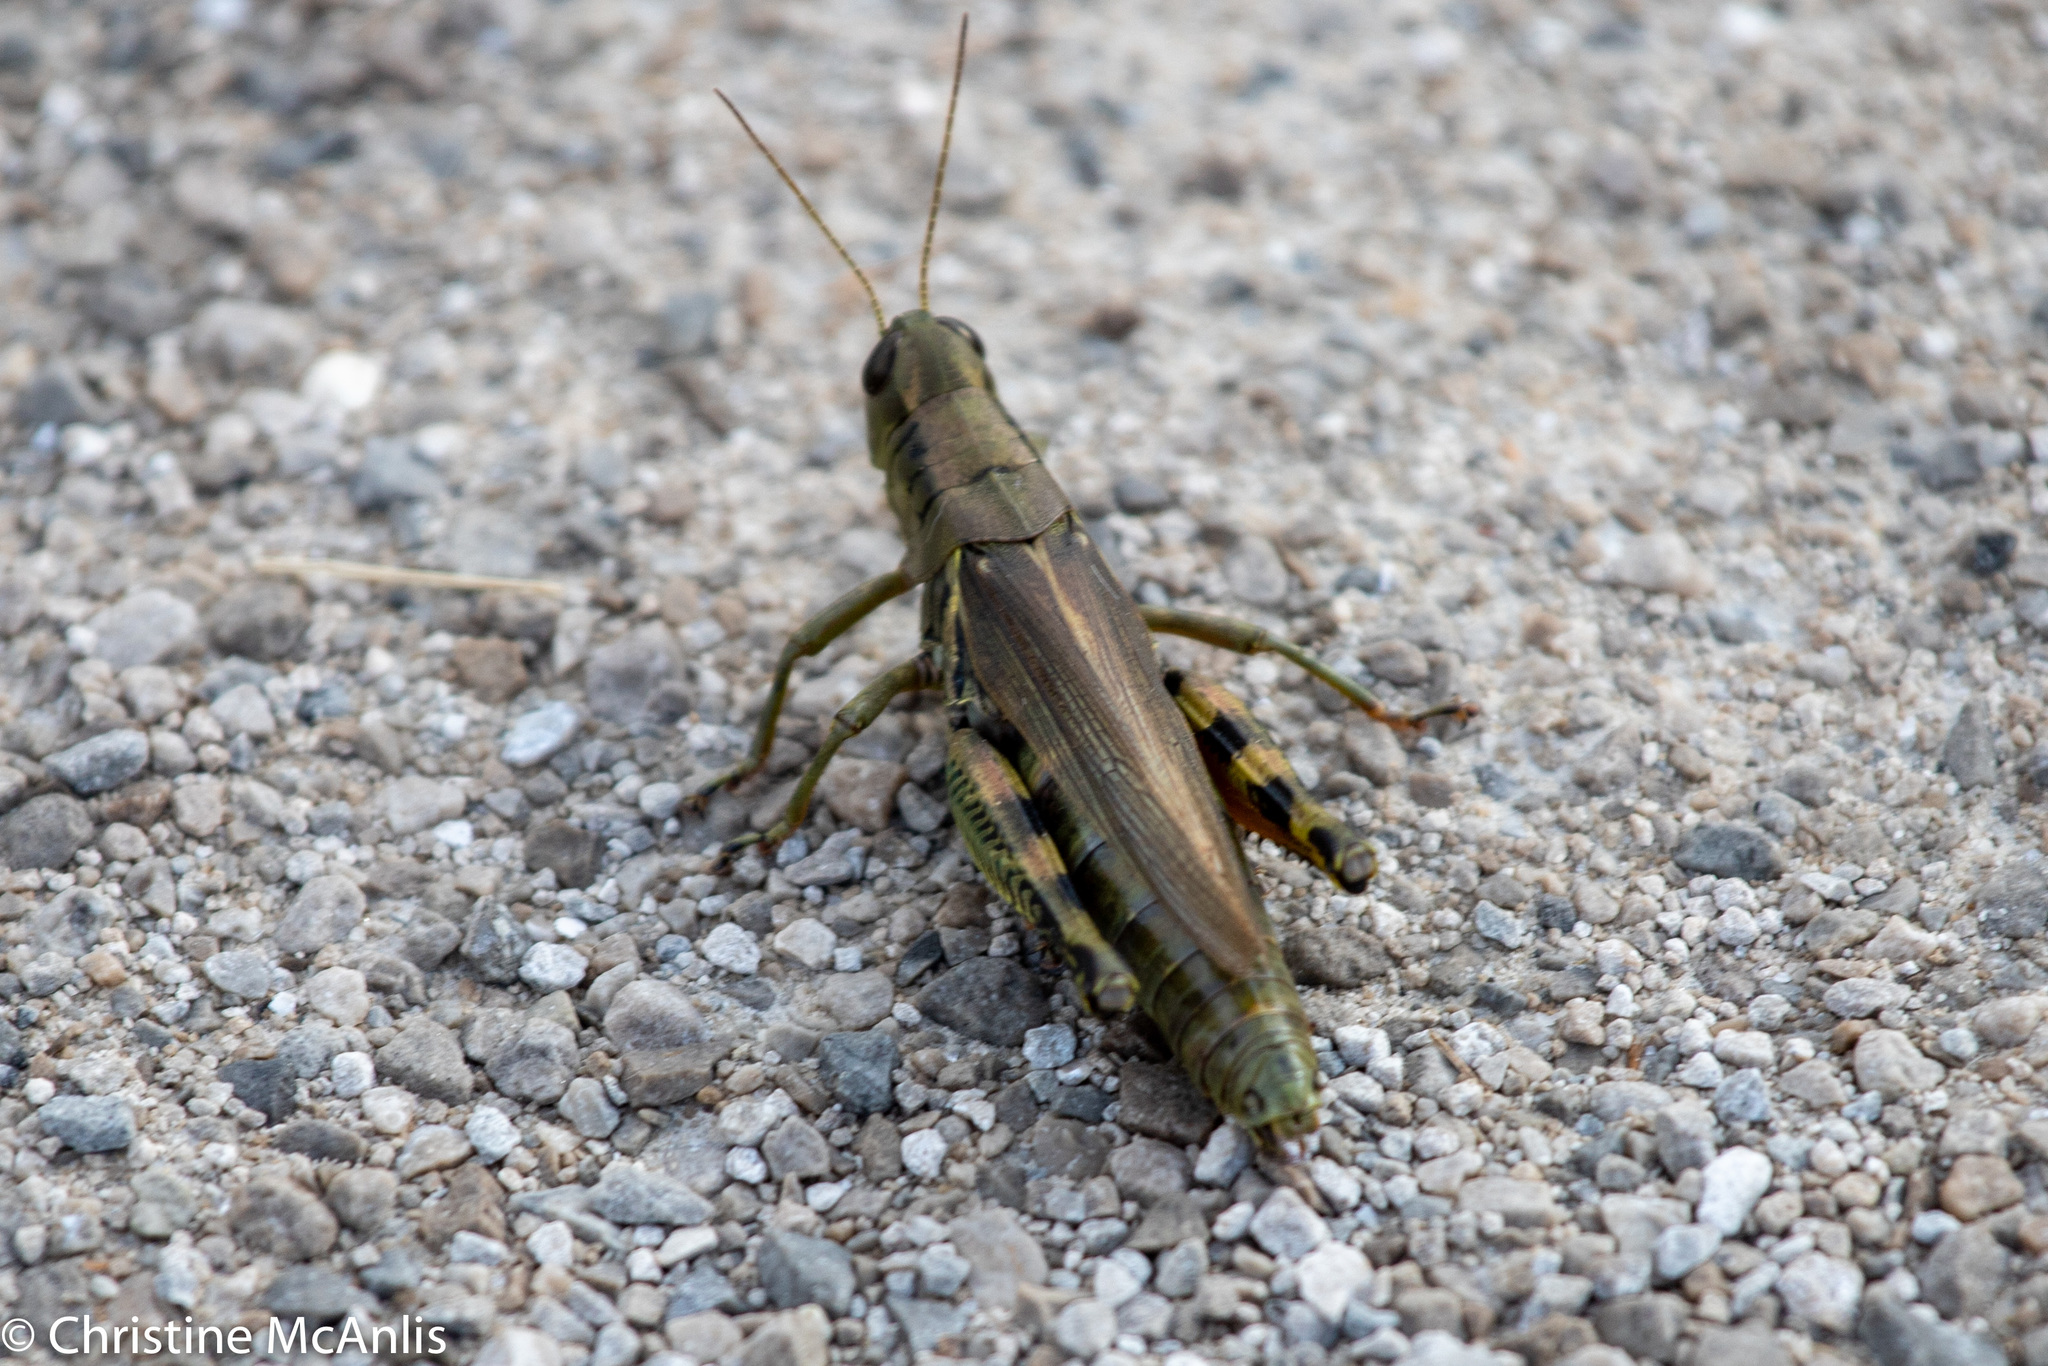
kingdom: Animalia
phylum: Arthropoda
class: Insecta
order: Orthoptera
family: Acrididae
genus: Melanoplus
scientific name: Melanoplus differentialis
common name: Differential grasshopper
